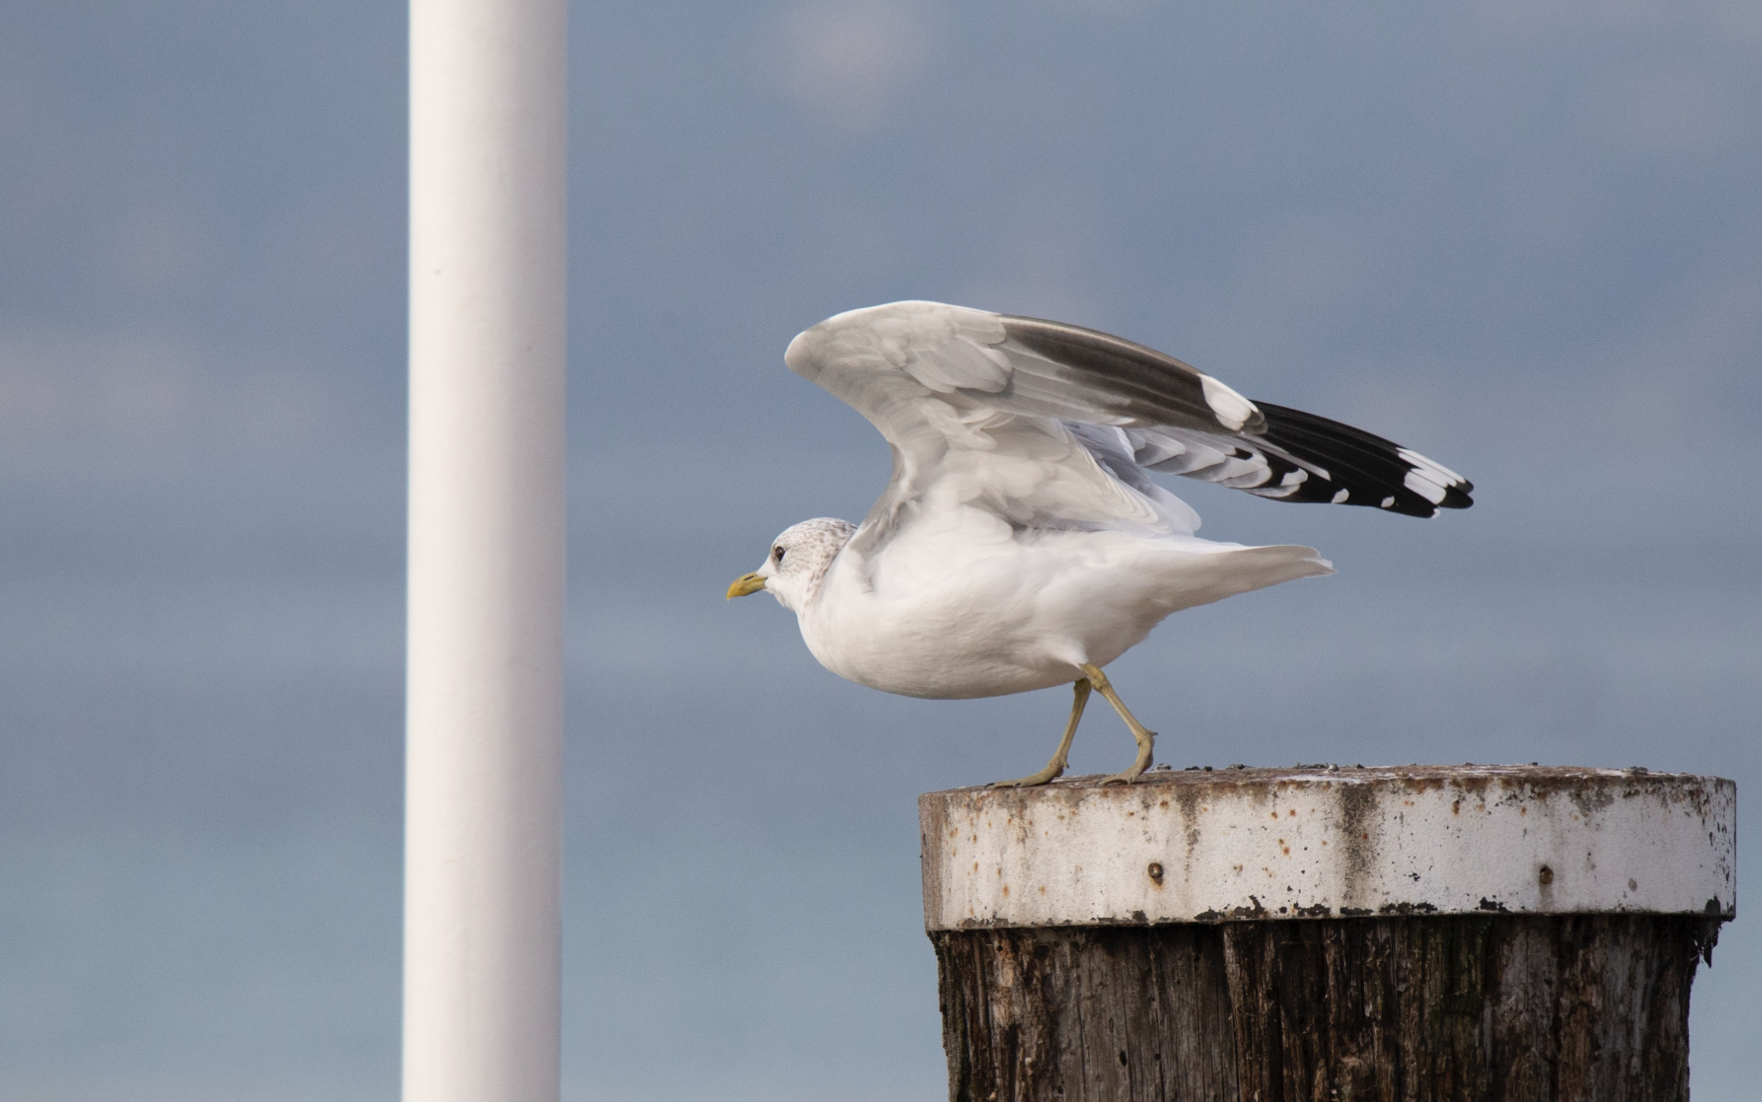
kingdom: Animalia
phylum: Chordata
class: Aves
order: Charadriiformes
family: Laridae
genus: Larus
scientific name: Larus canus
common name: Mew gull
